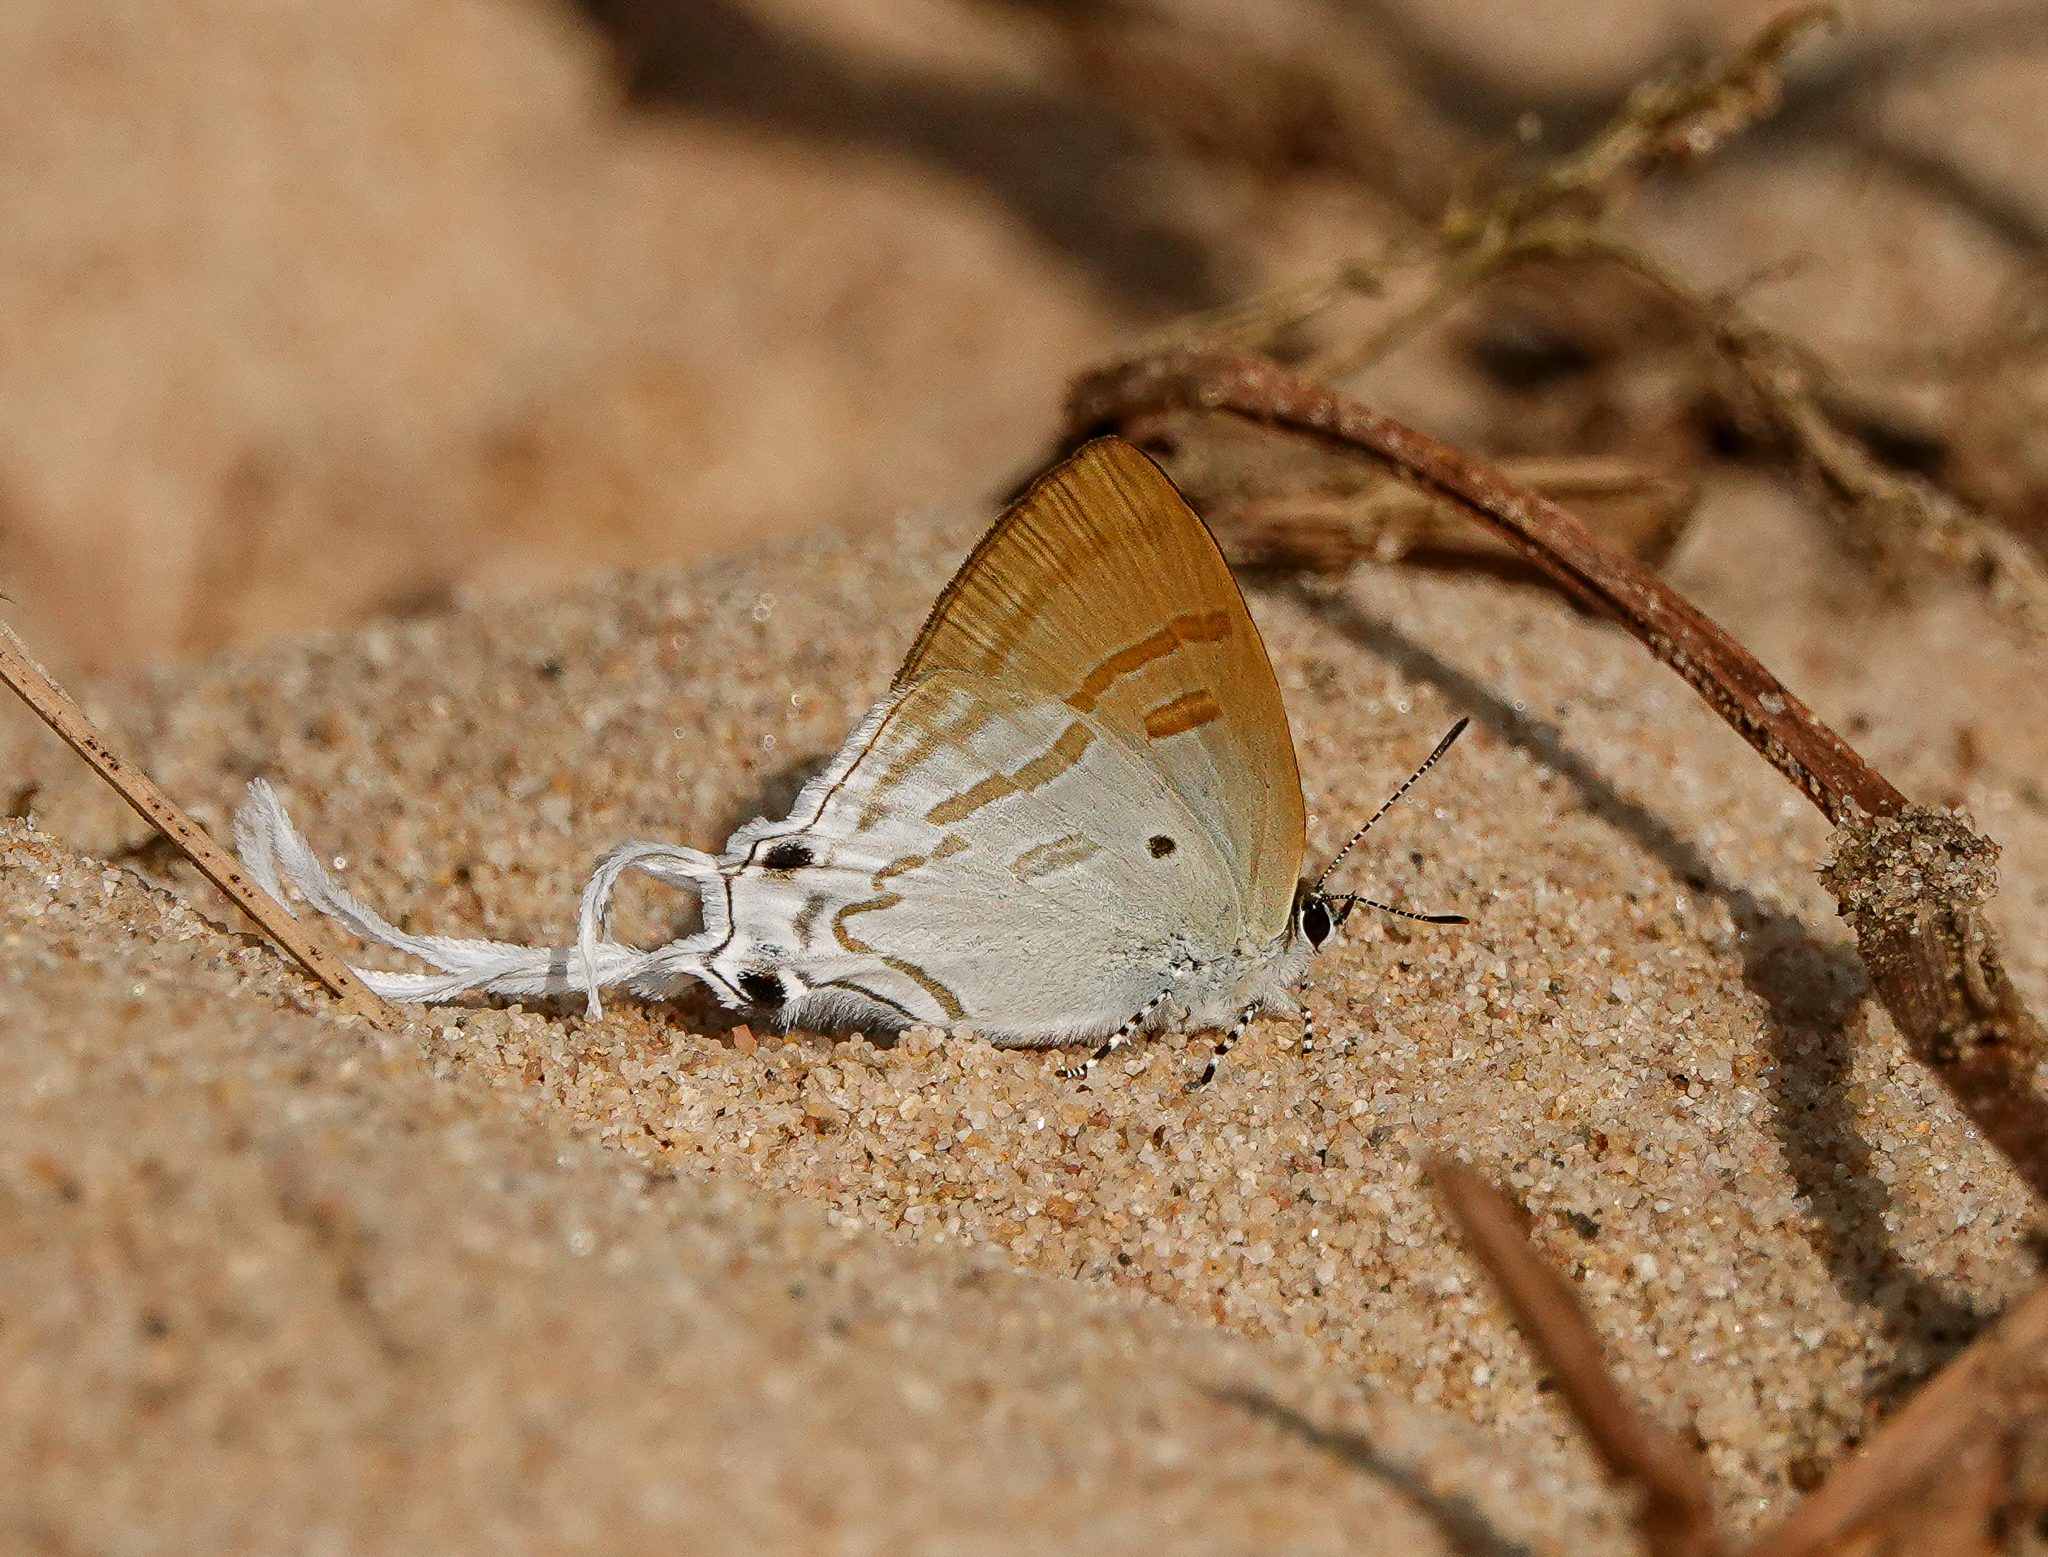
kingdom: Animalia
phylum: Arthropoda
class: Insecta
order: Lepidoptera
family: Lycaenidae
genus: Zeltus
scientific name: Zeltus amasa
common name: Fluffy tit
